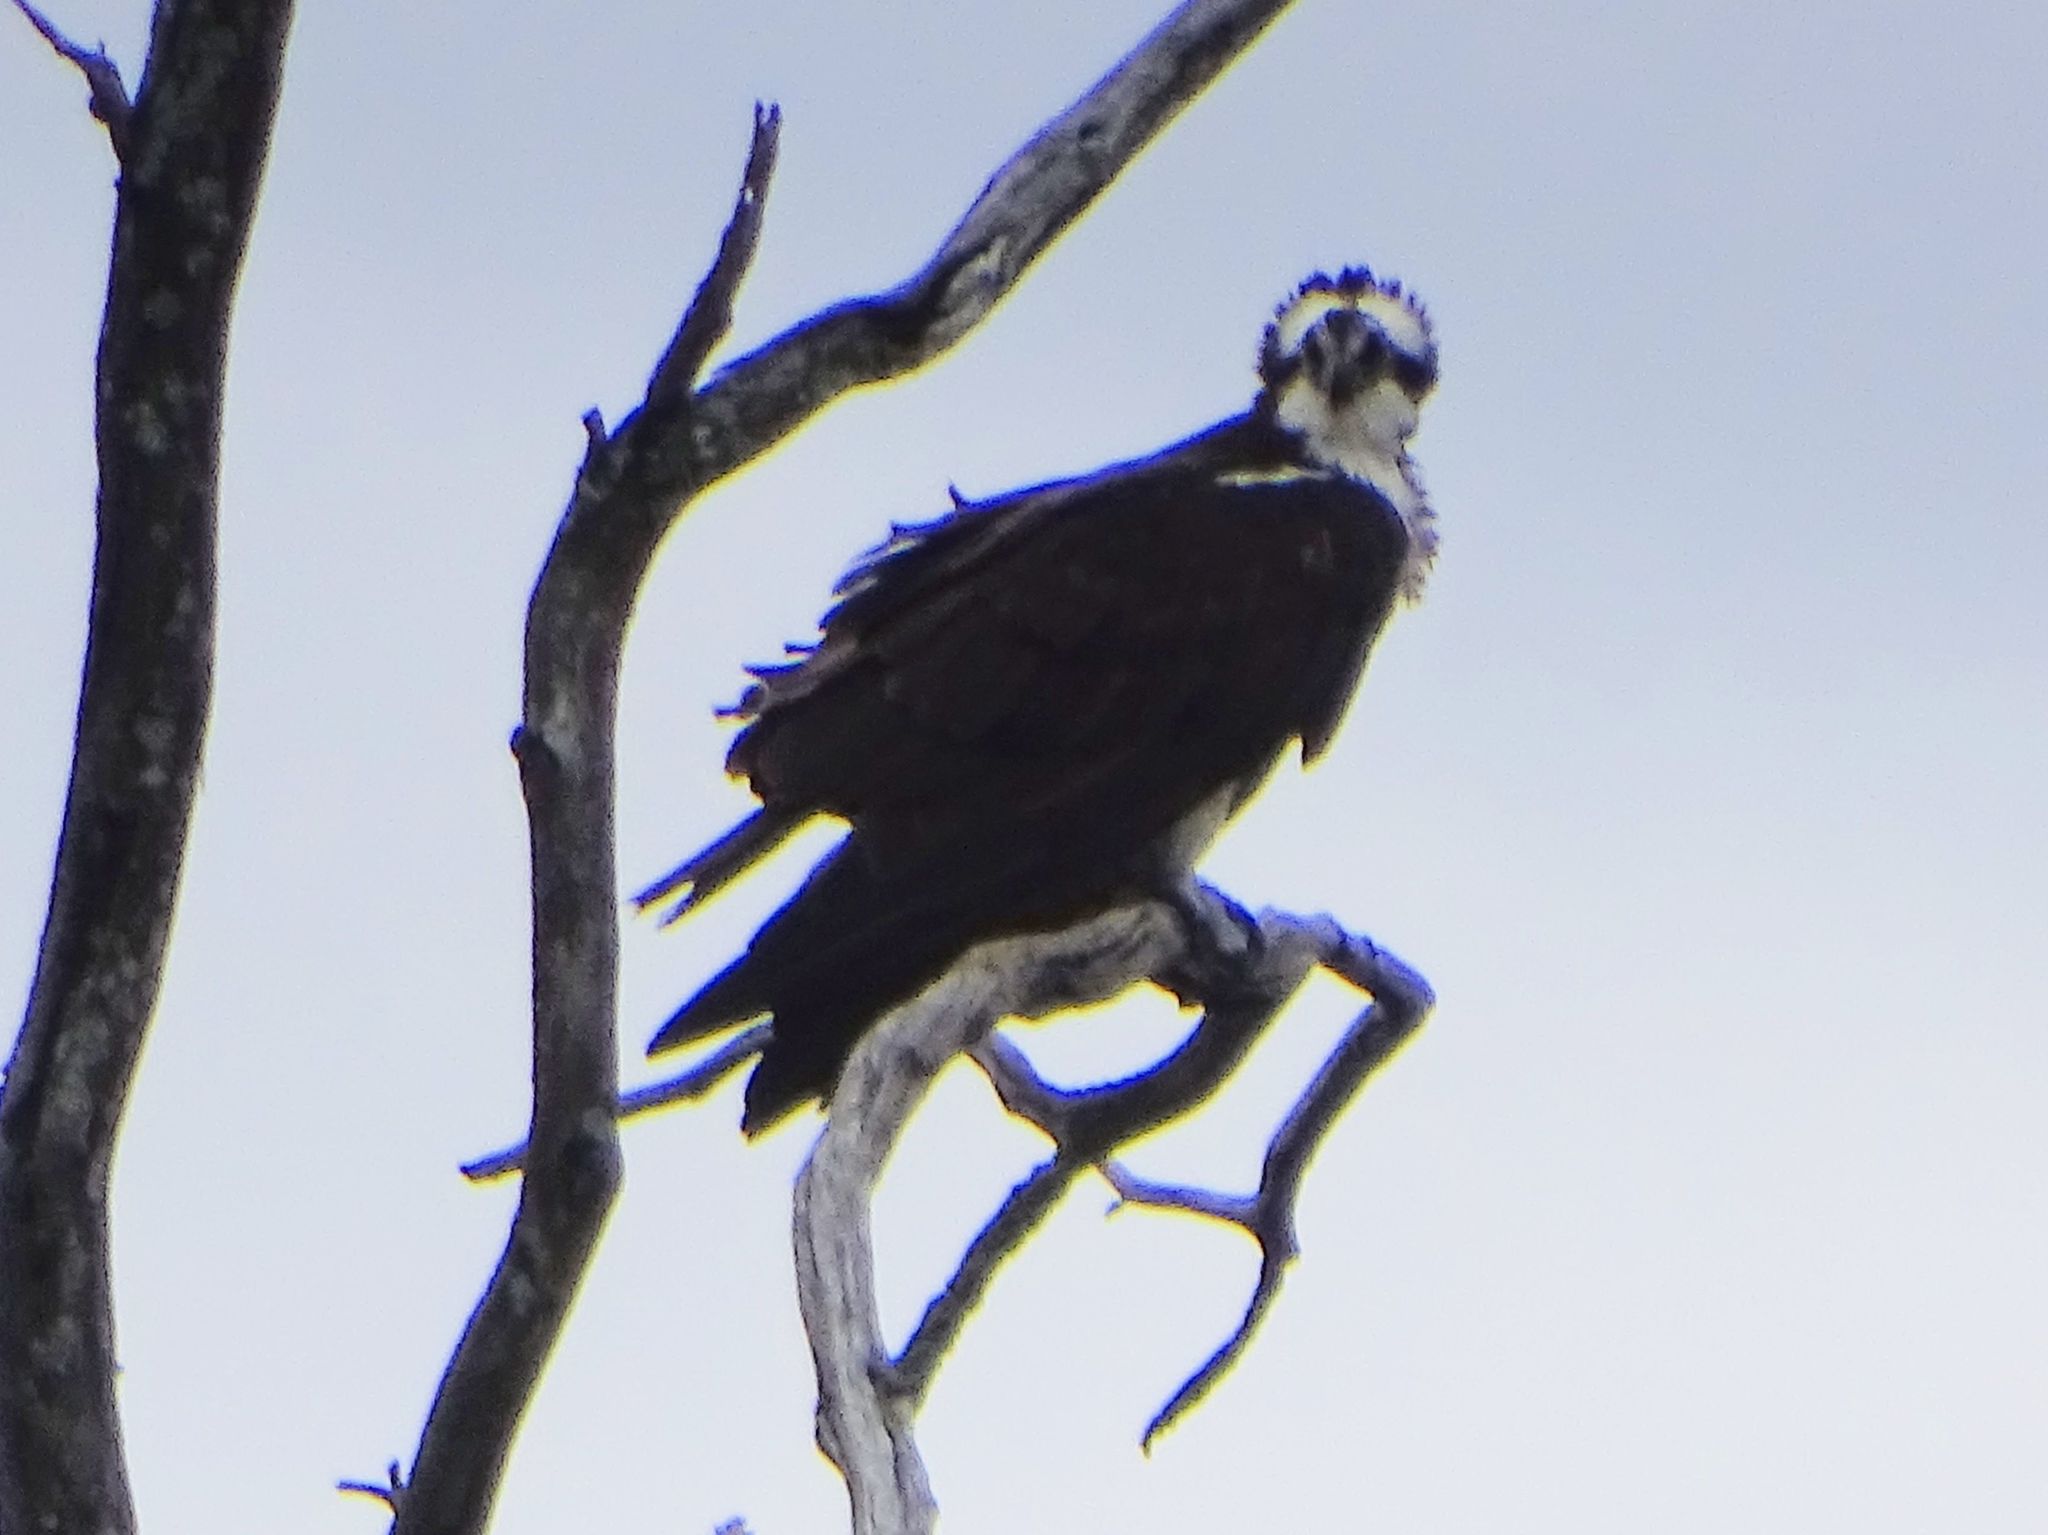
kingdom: Animalia
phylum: Chordata
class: Aves
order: Accipitriformes
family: Pandionidae
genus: Pandion
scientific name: Pandion haliaetus
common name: Osprey
